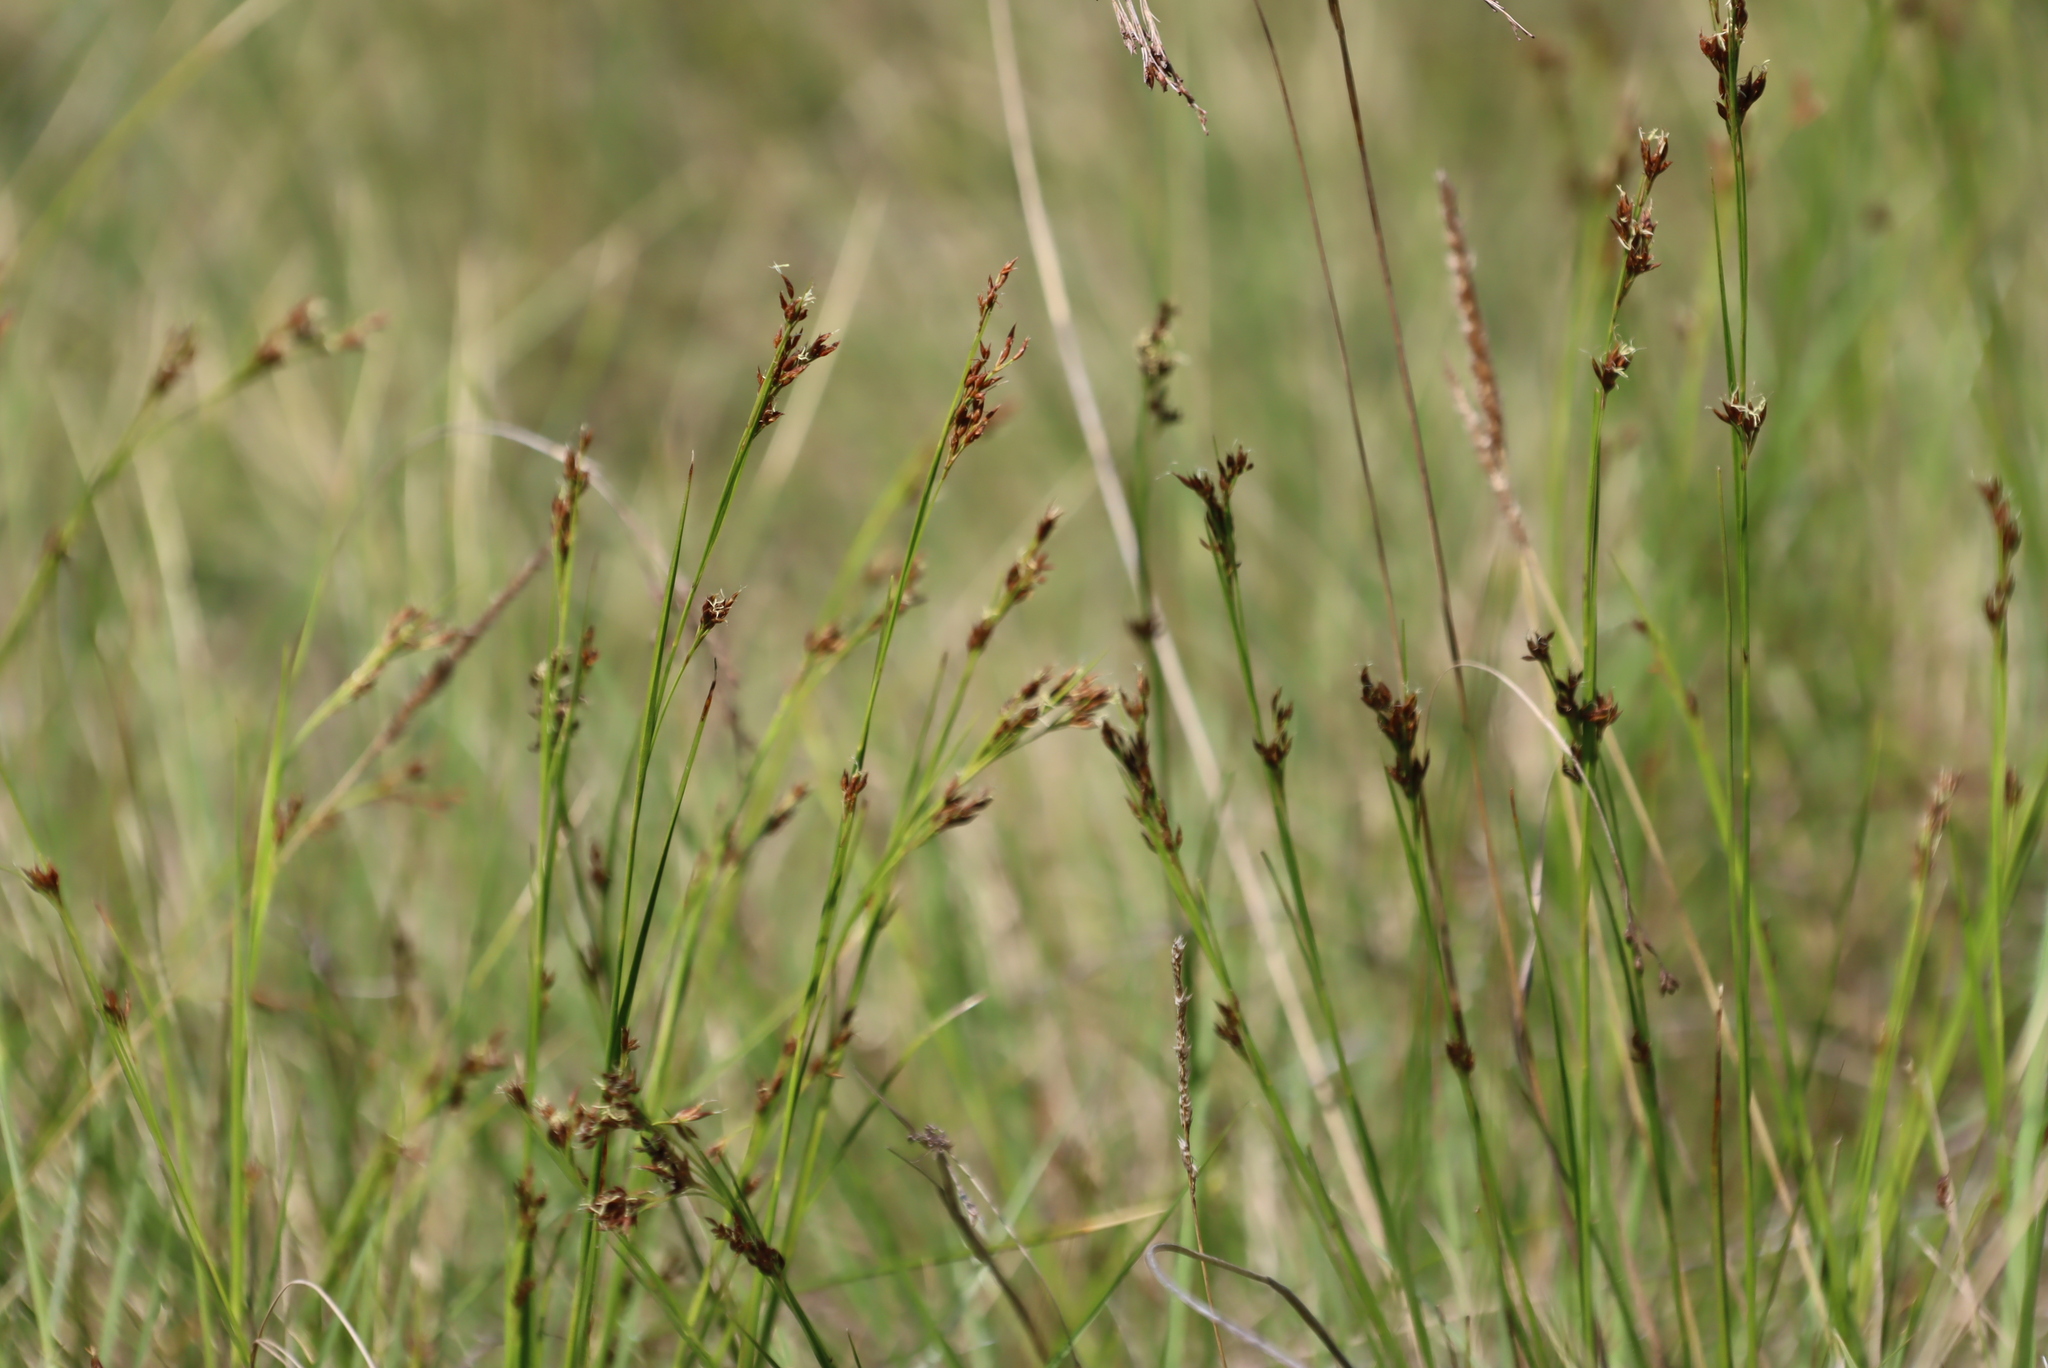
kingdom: Plantae
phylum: Tracheophyta
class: Liliopsida
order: Poales
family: Cyperaceae
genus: Rhynchospora
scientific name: Rhynchospora brownii
